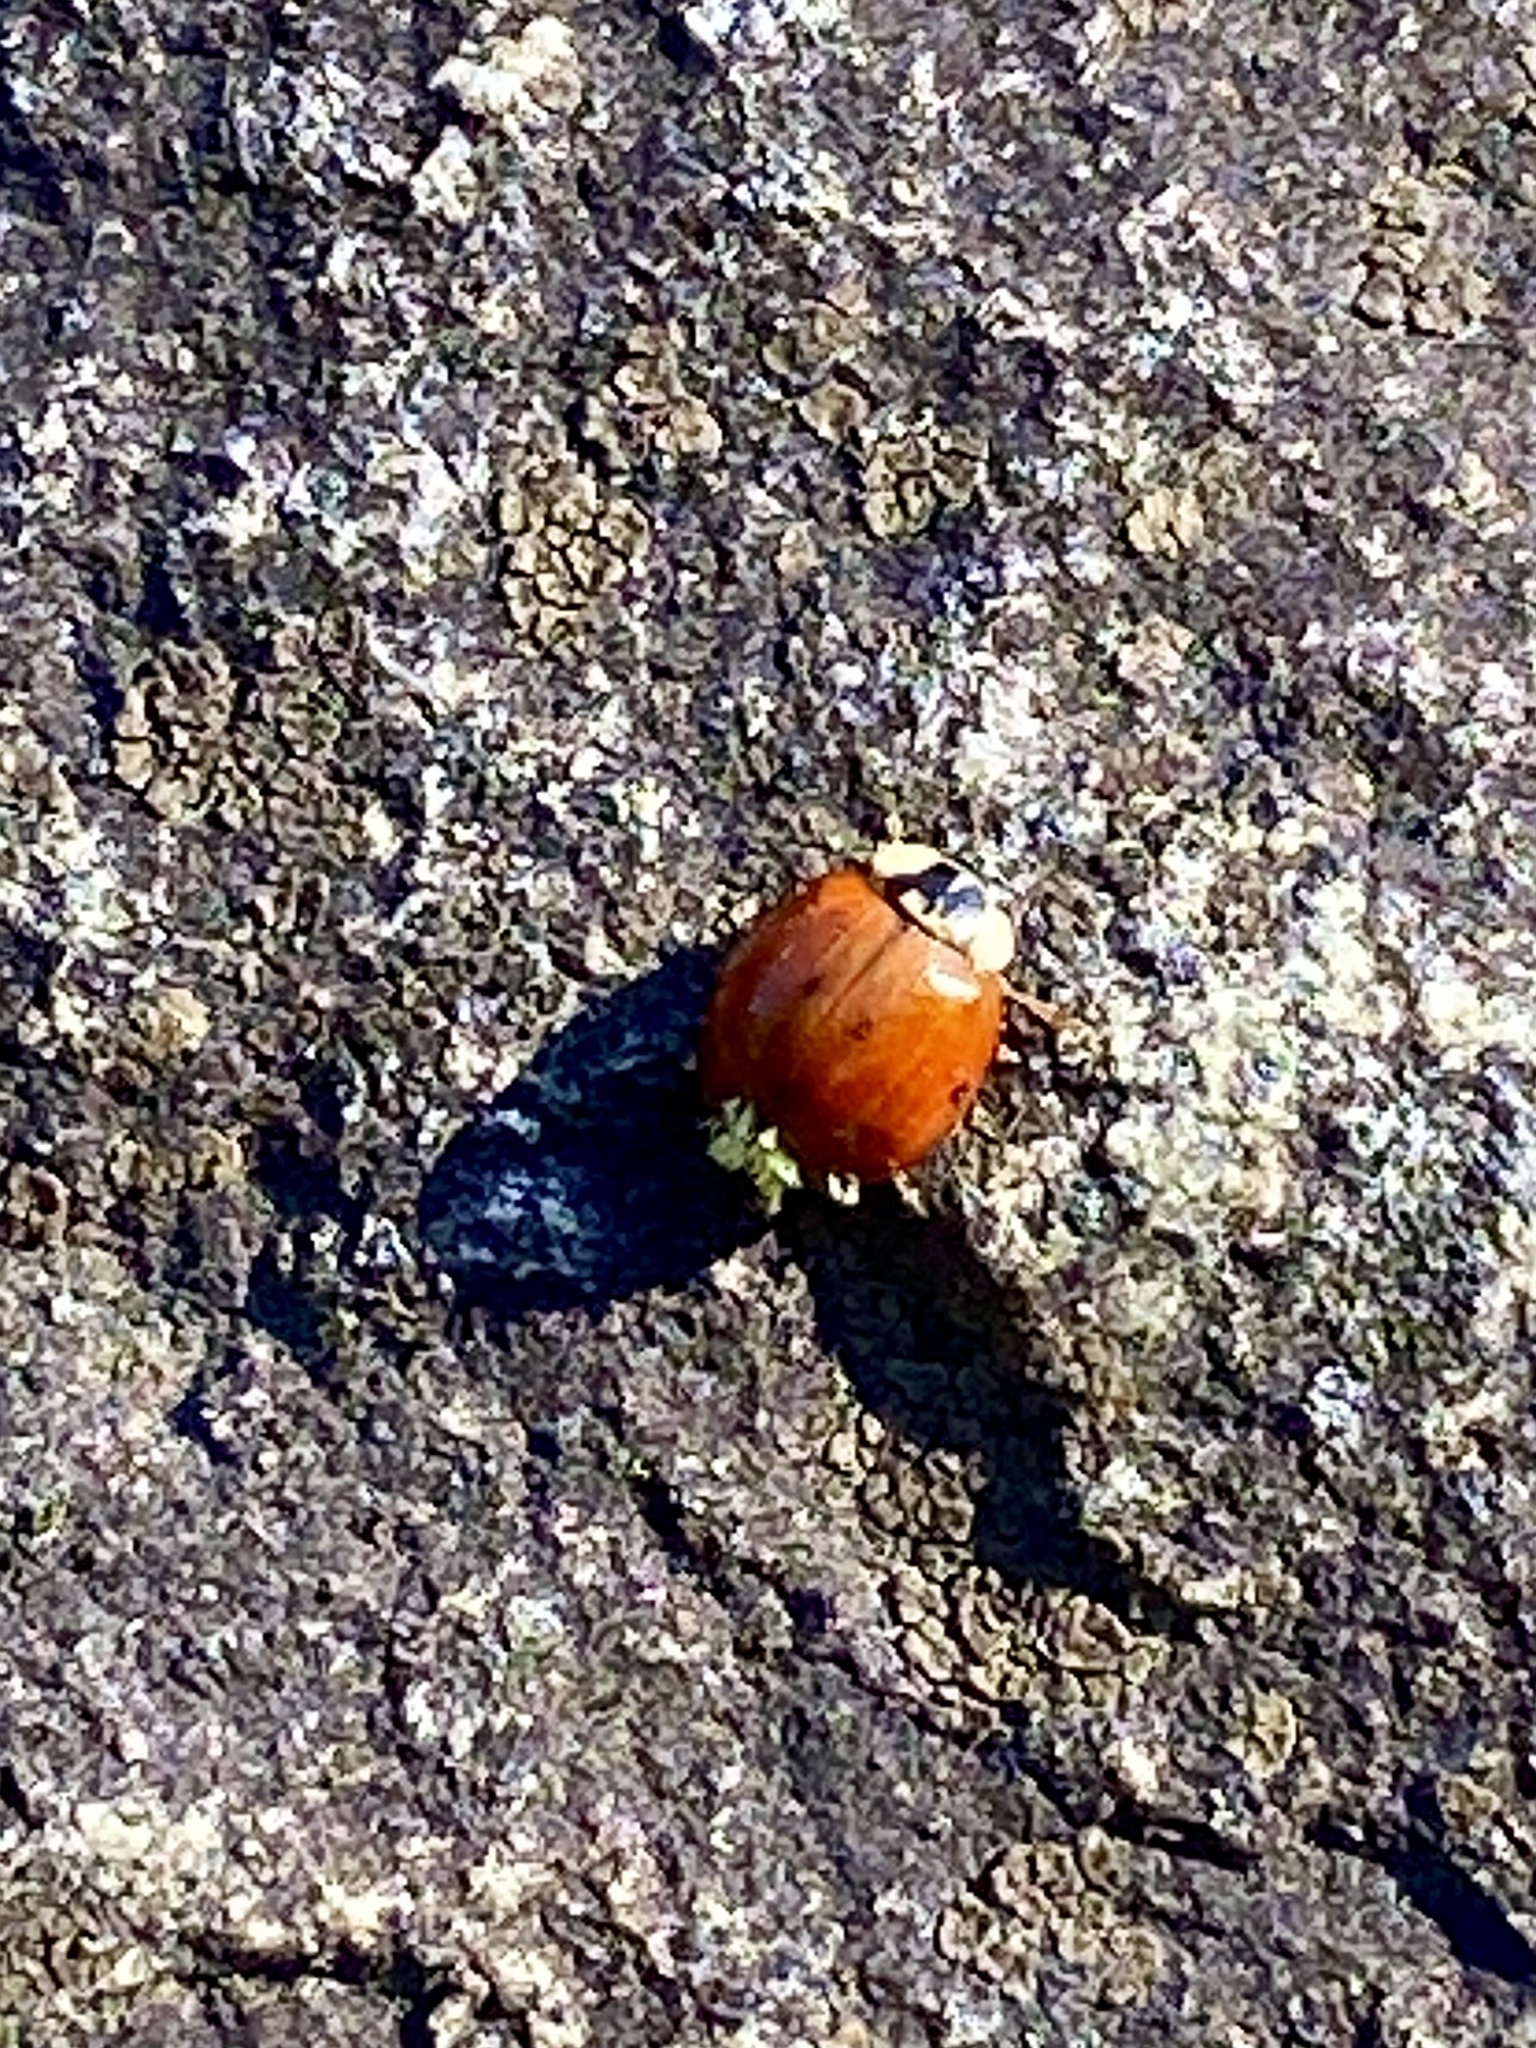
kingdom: Animalia
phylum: Arthropoda
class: Insecta
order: Coleoptera
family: Coccinellidae
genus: Harmonia
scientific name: Harmonia axyridis
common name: Harlequin ladybird
